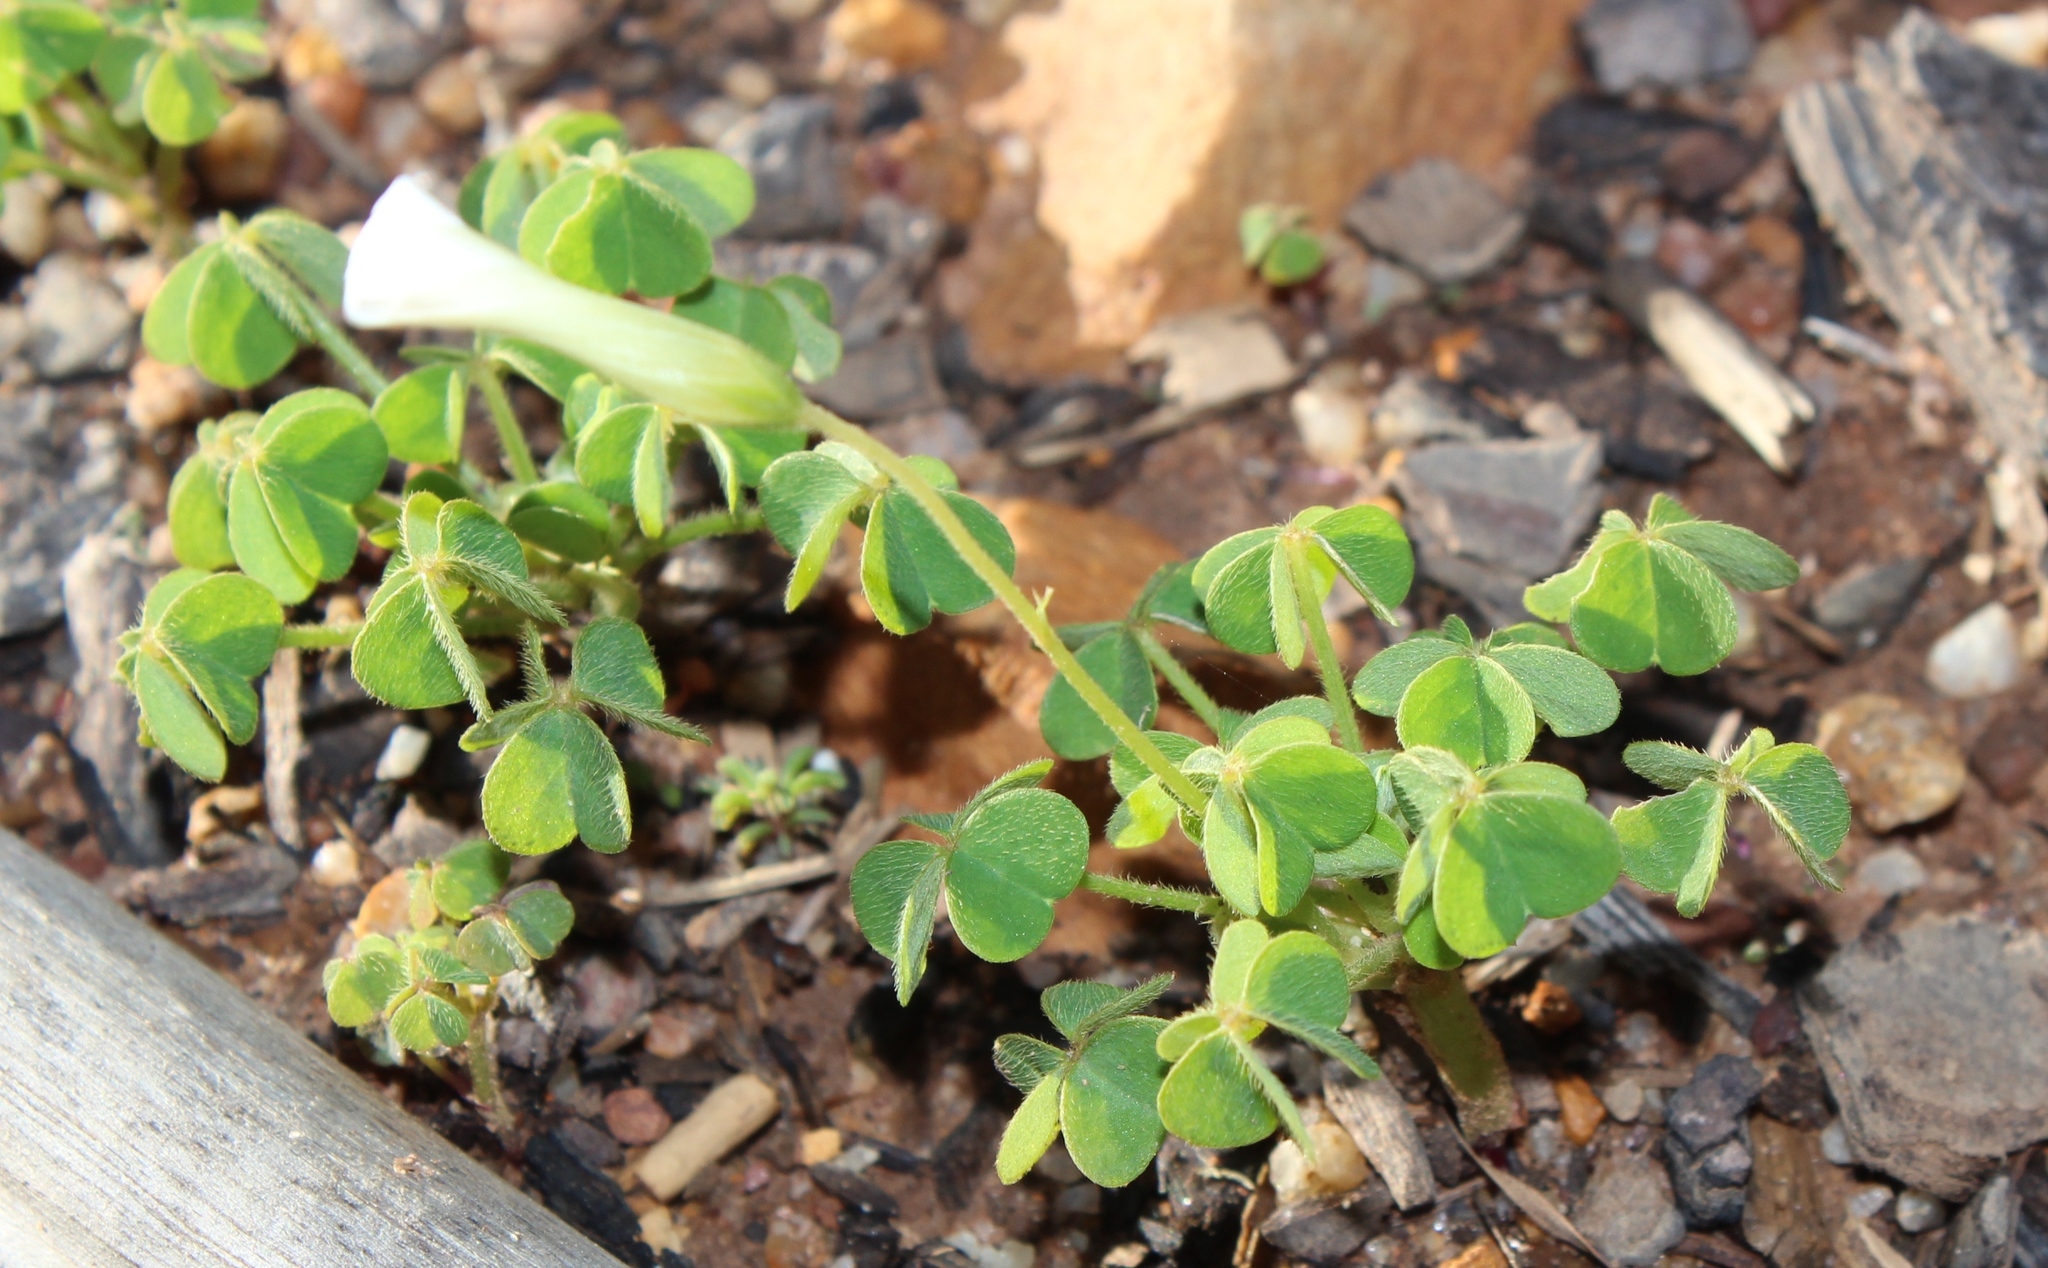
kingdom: Plantae
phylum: Tracheophyta
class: Magnoliopsida
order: Oxalidales
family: Oxalidaceae
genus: Oxalis
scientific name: Oxalis lanata
